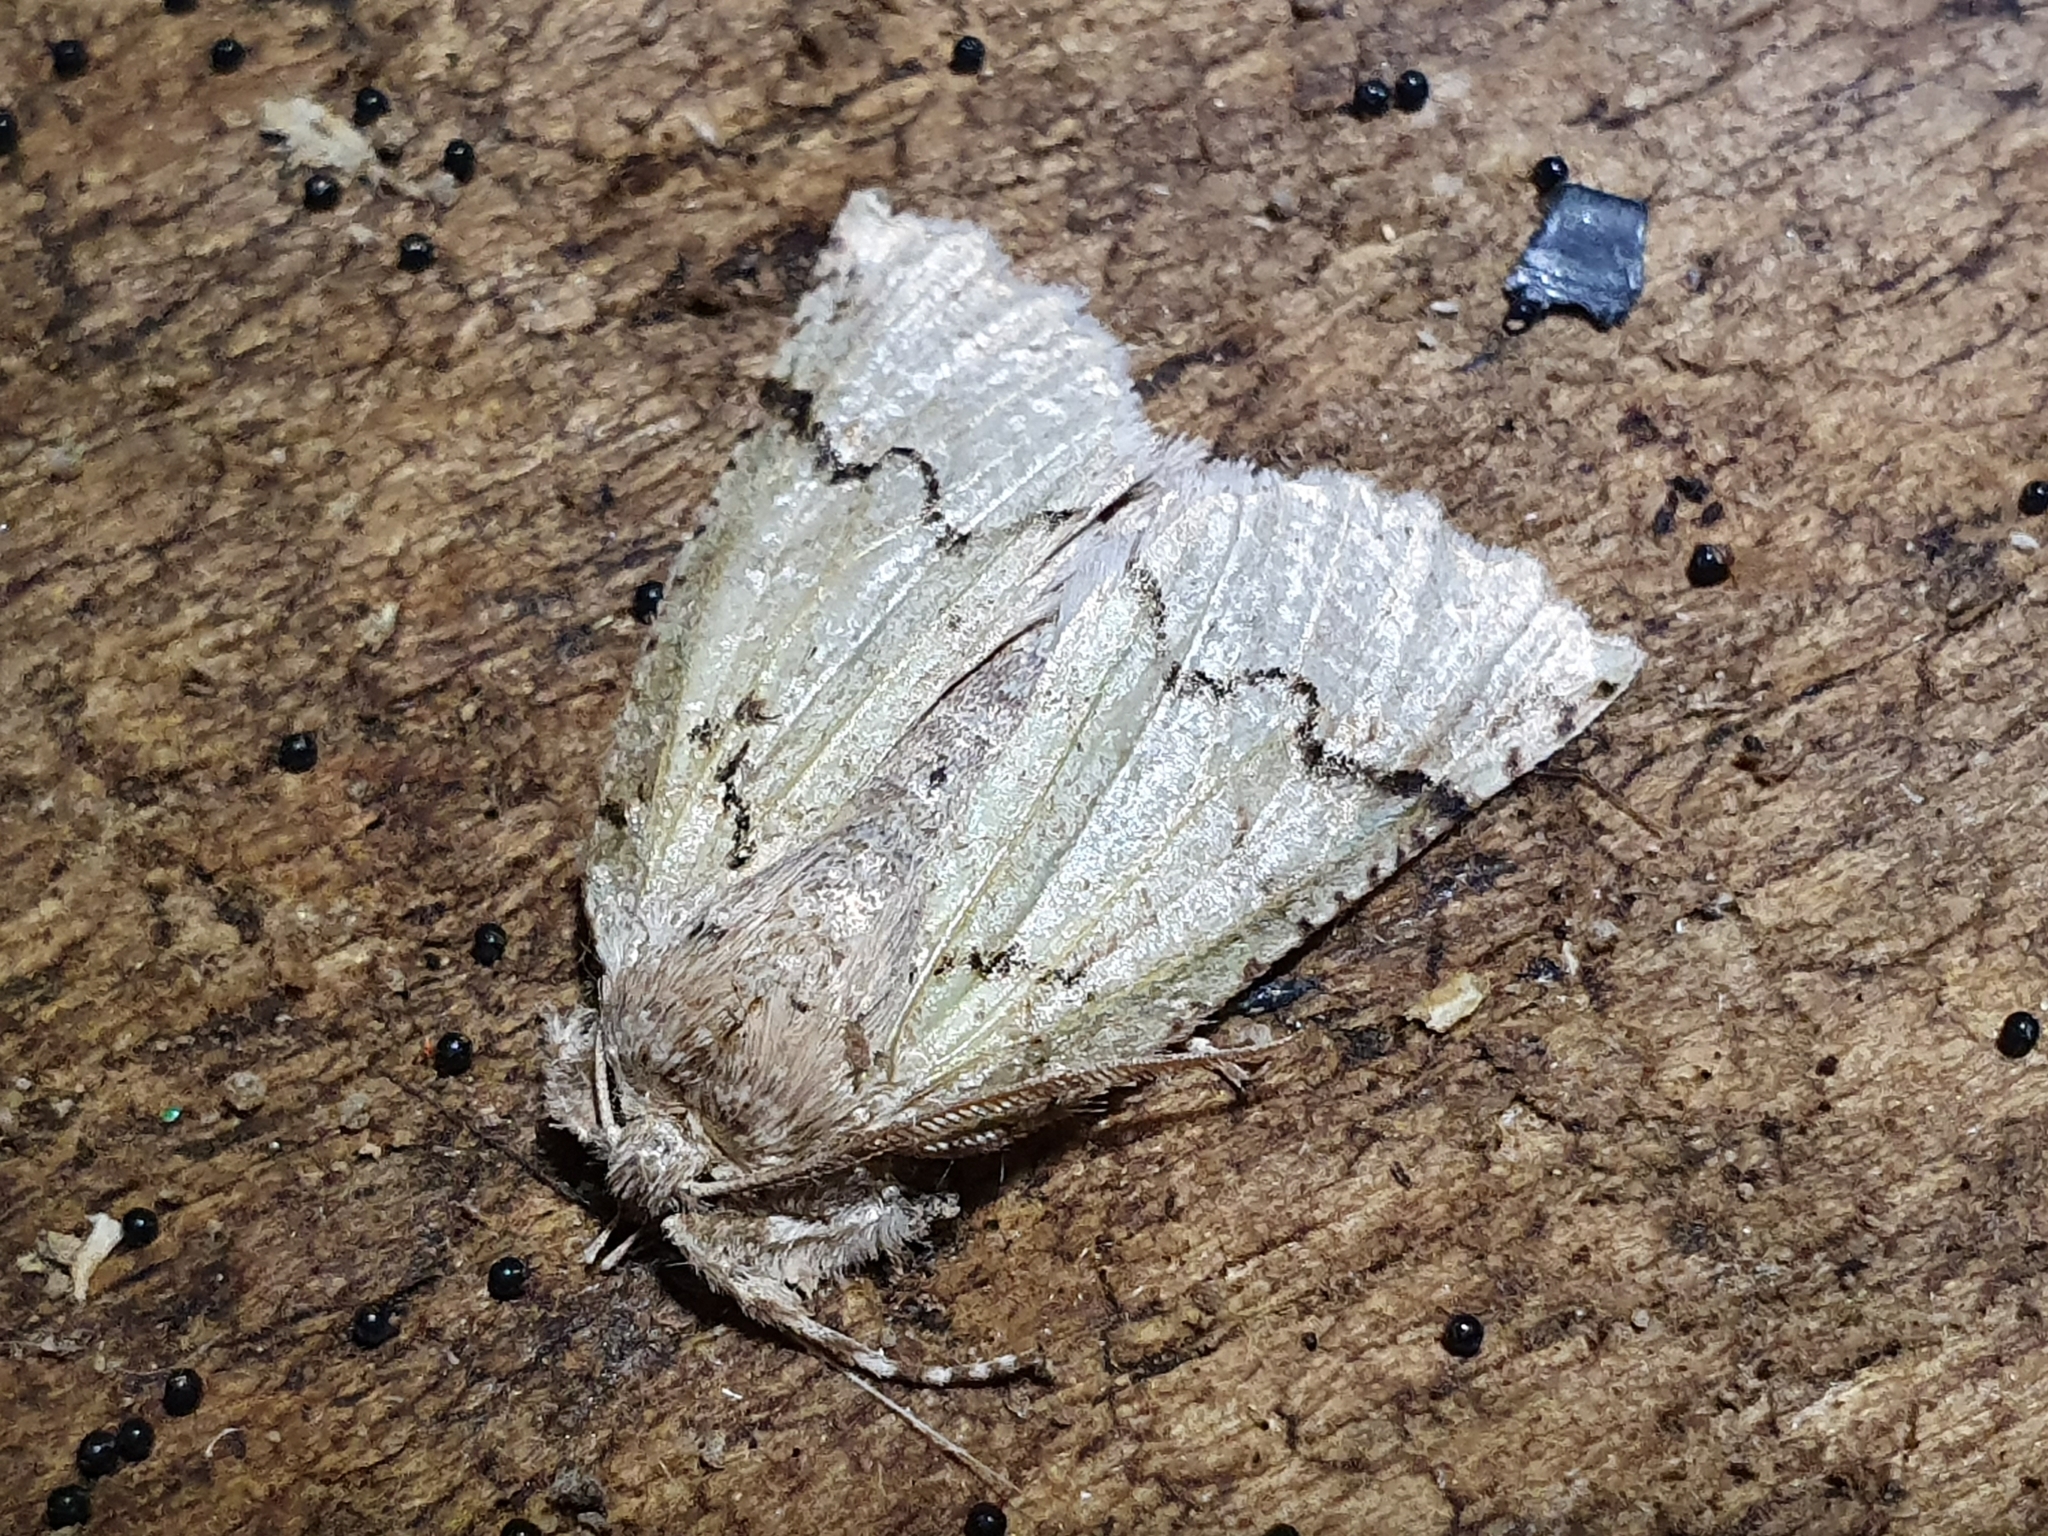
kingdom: Animalia
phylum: Arthropoda
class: Insecta
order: Lepidoptera
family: Geometridae
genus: Declana
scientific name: Declana floccosa
